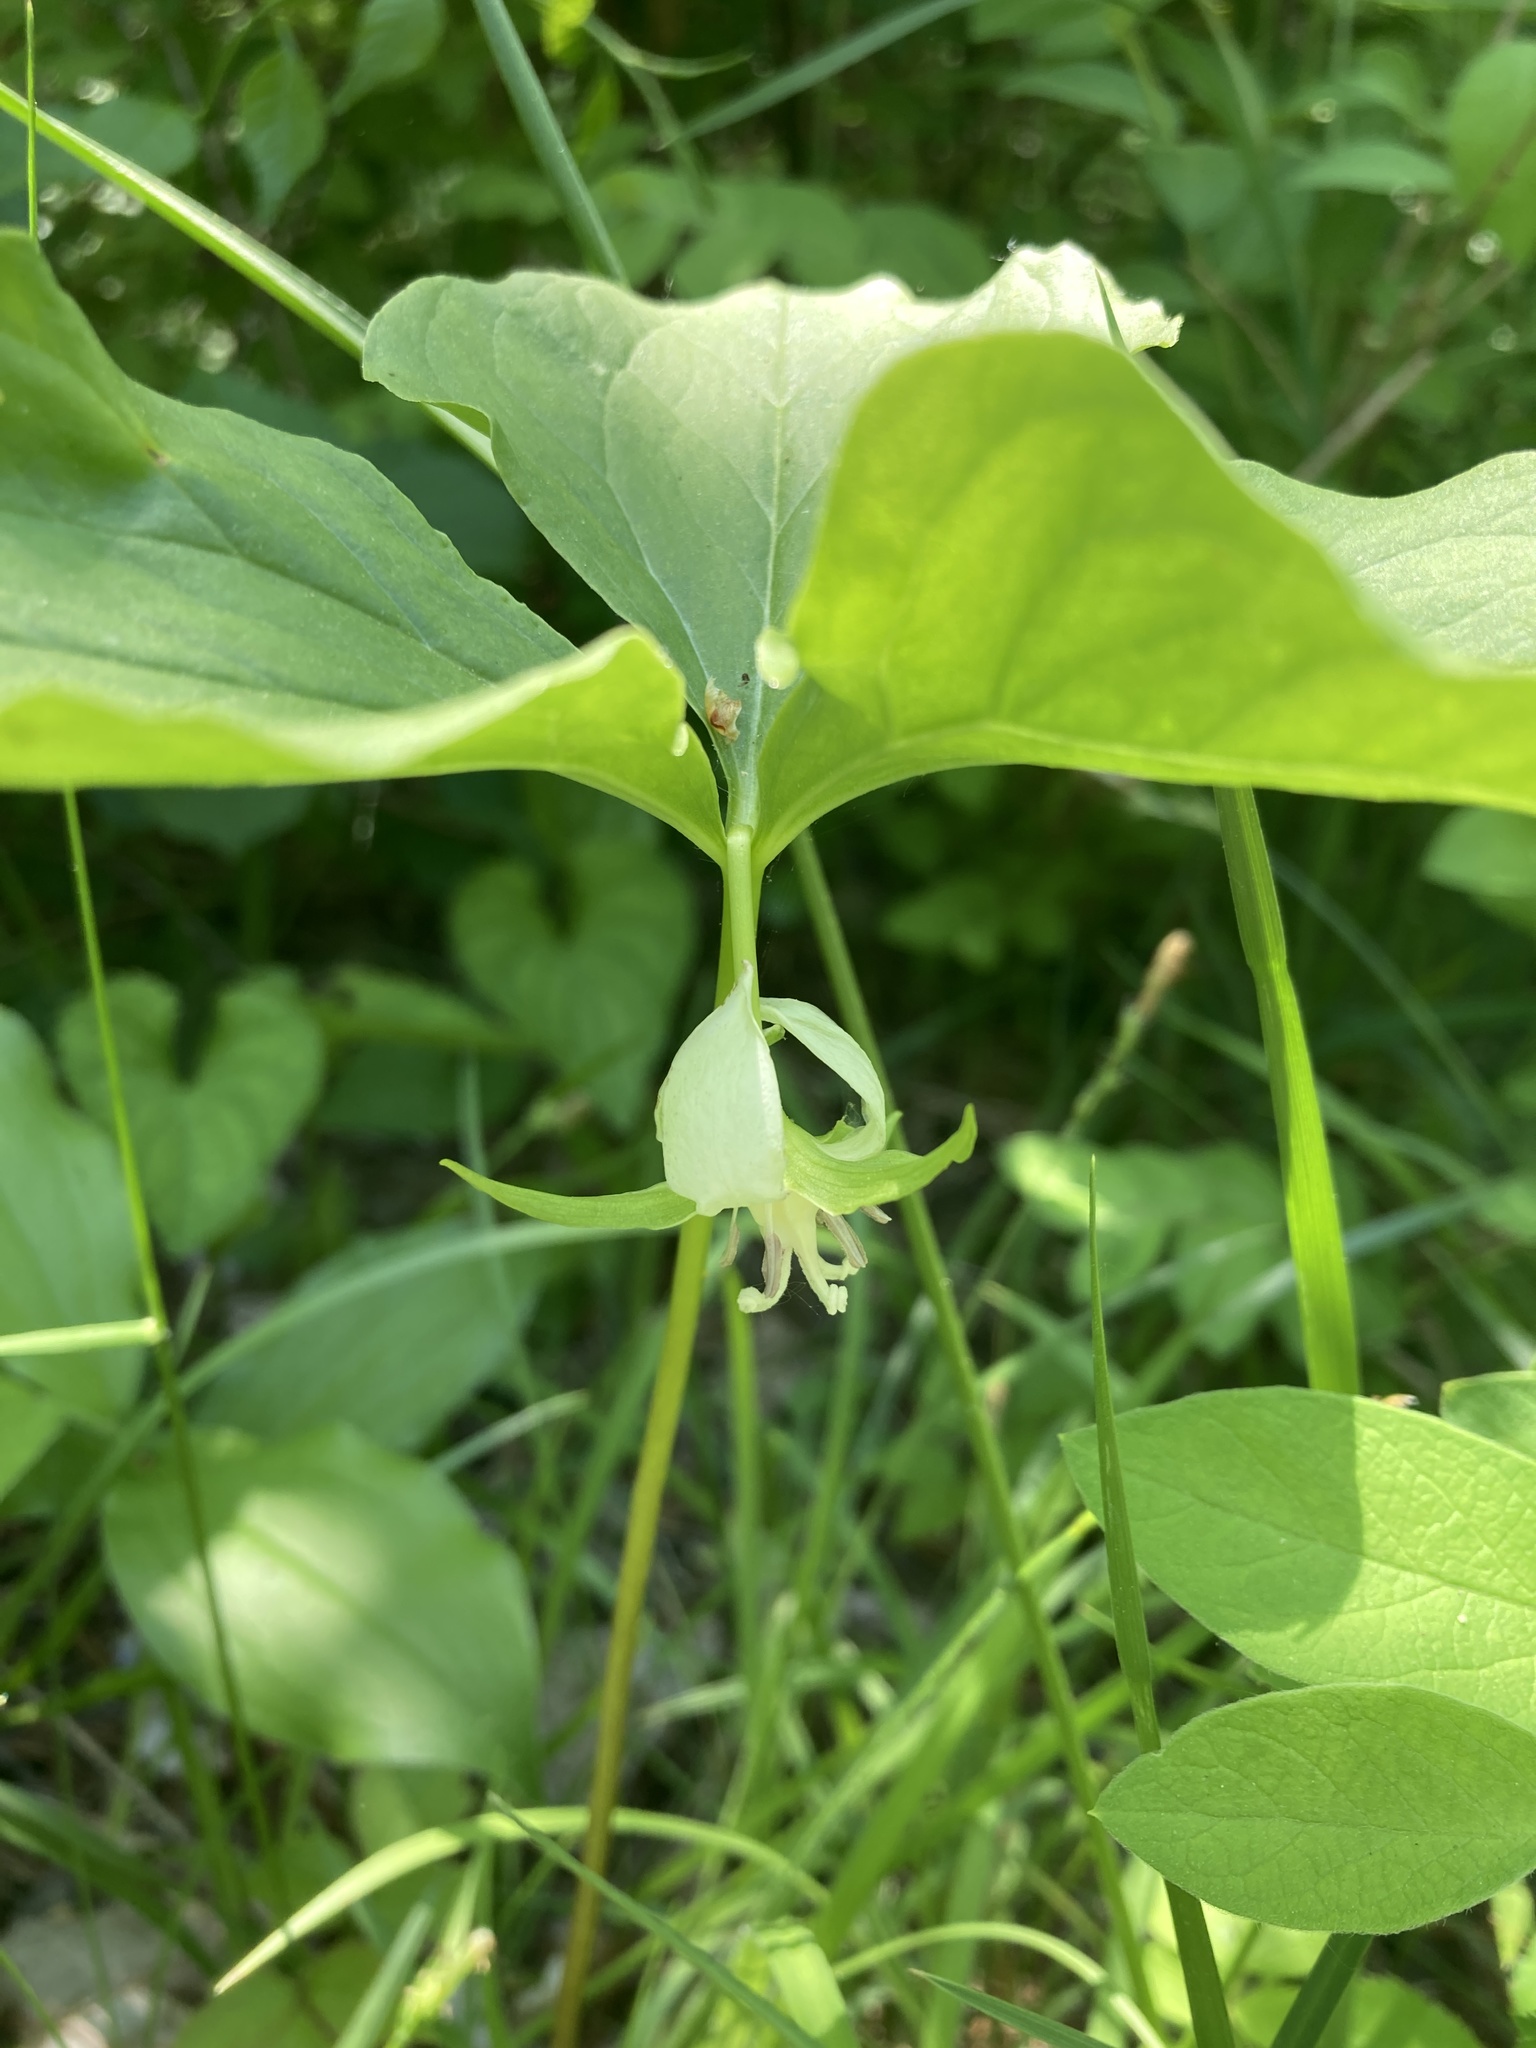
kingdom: Plantae
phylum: Tracheophyta
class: Liliopsida
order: Liliales
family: Melanthiaceae
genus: Trillium
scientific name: Trillium cernuum
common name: Nodding trillium
